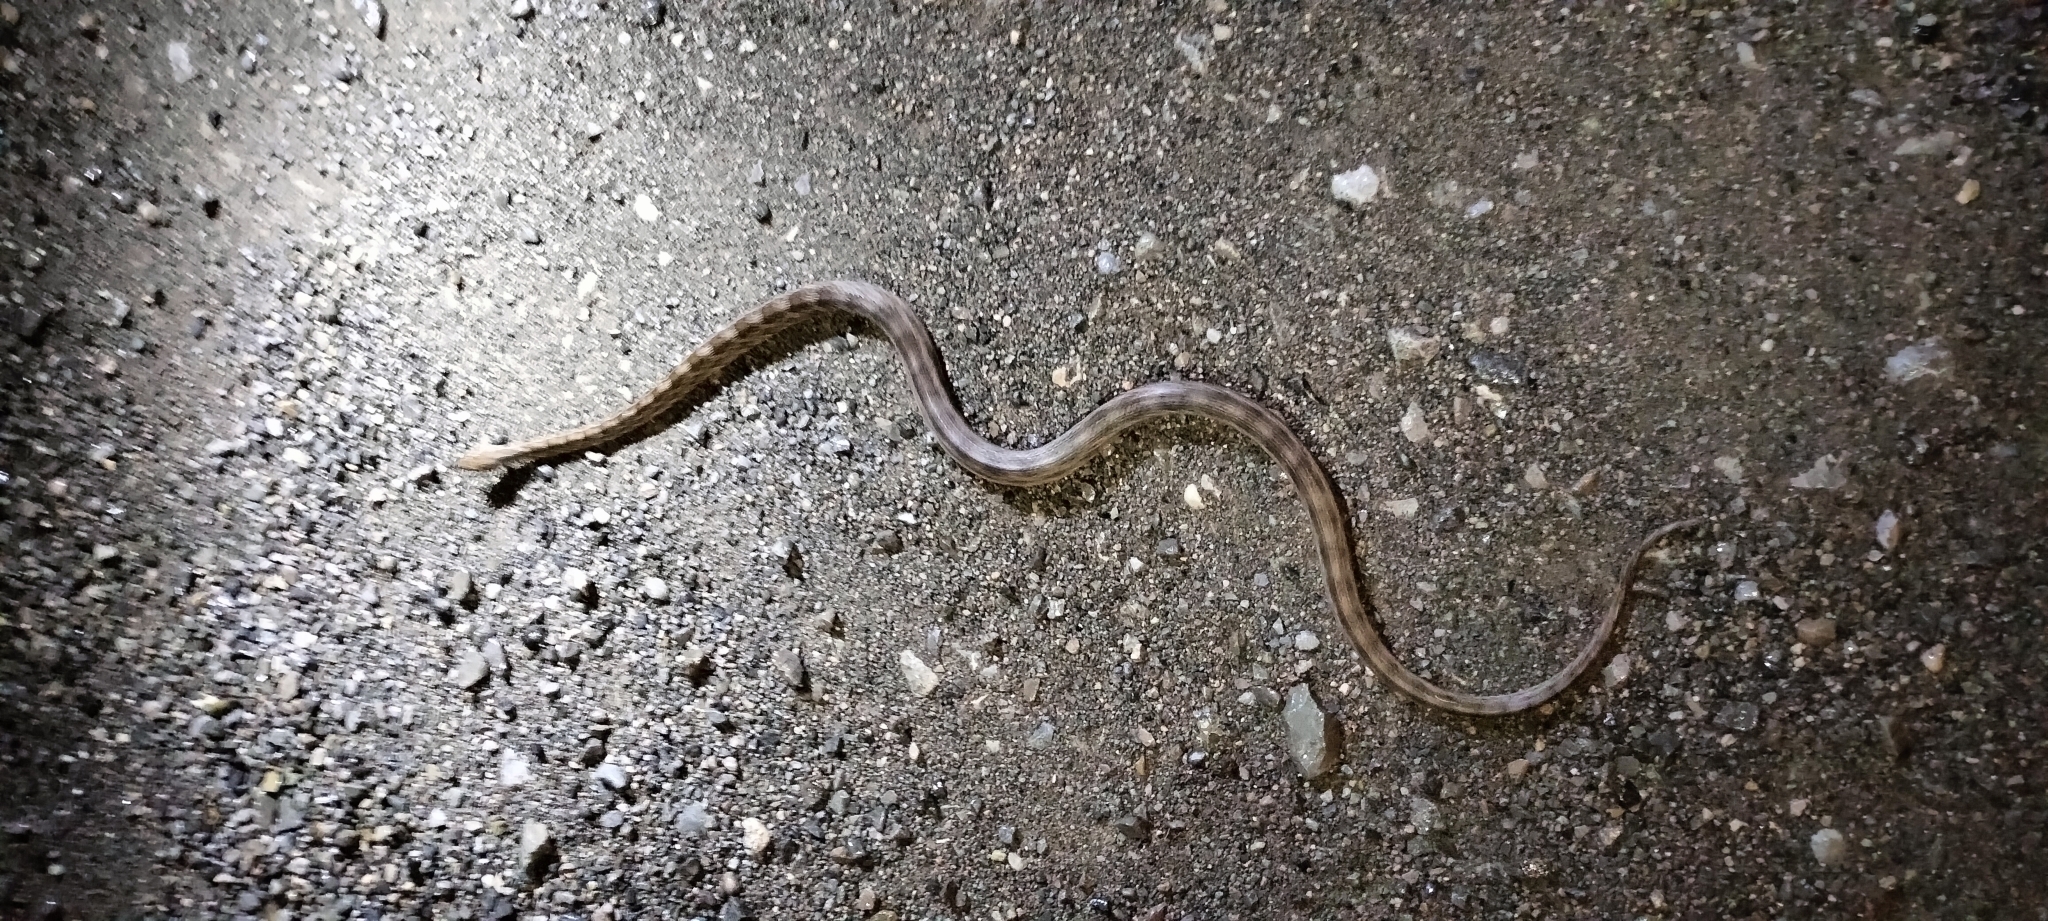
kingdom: Animalia
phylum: Chordata
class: Squamata
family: Colubridae
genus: Pantherophis
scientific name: Pantherophis emoryi
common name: Great plains rat snake
